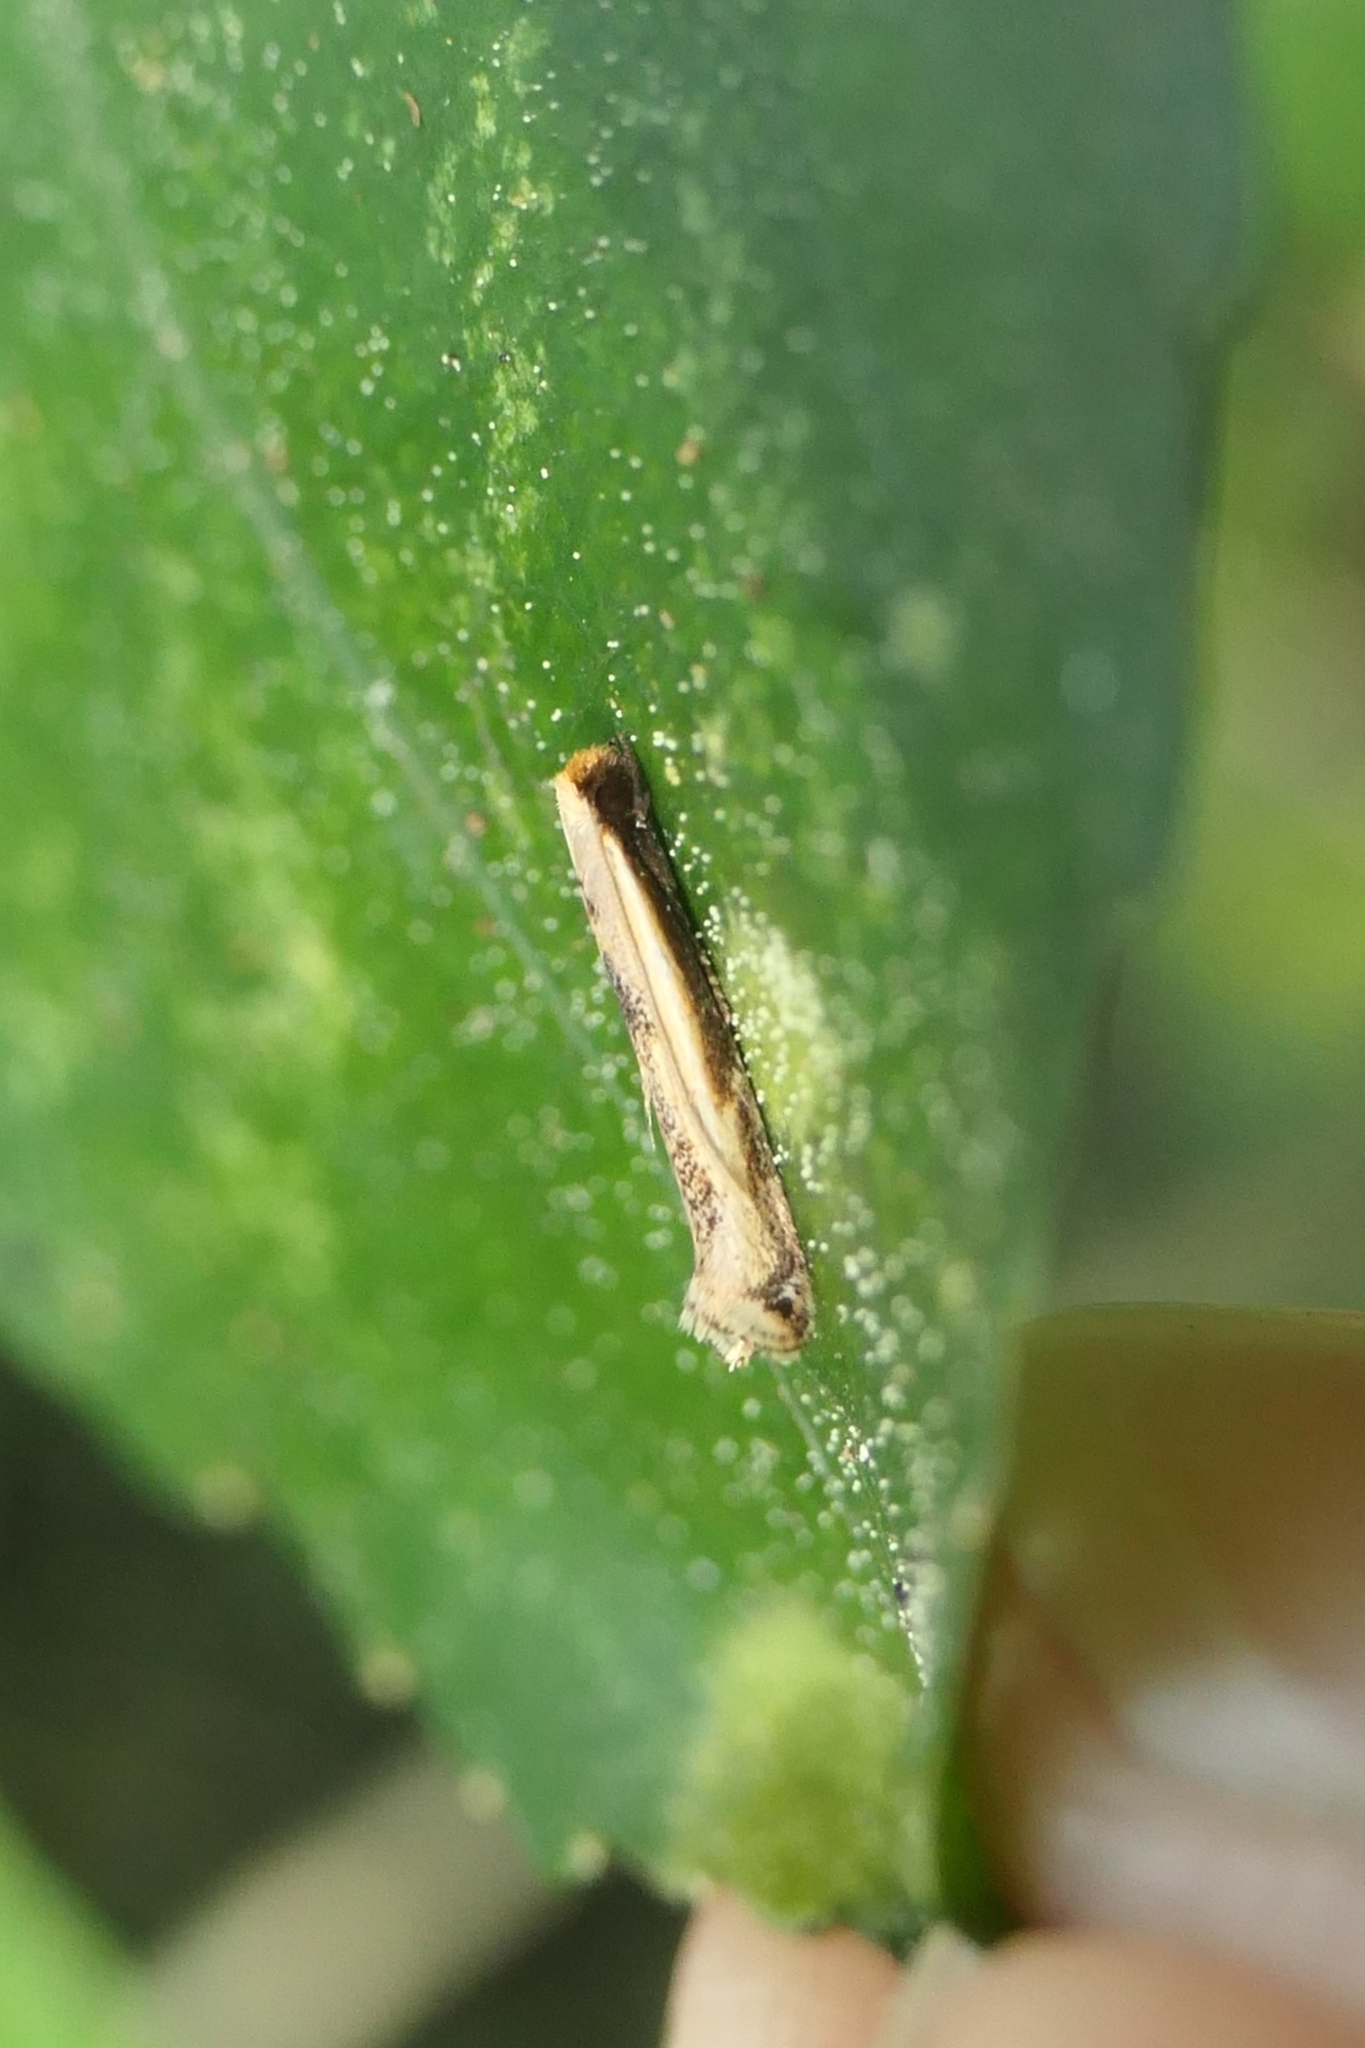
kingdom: Animalia
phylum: Arthropoda
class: Insecta
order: Lepidoptera
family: Tineidae
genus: Erechthias
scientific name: Erechthias charadrota
